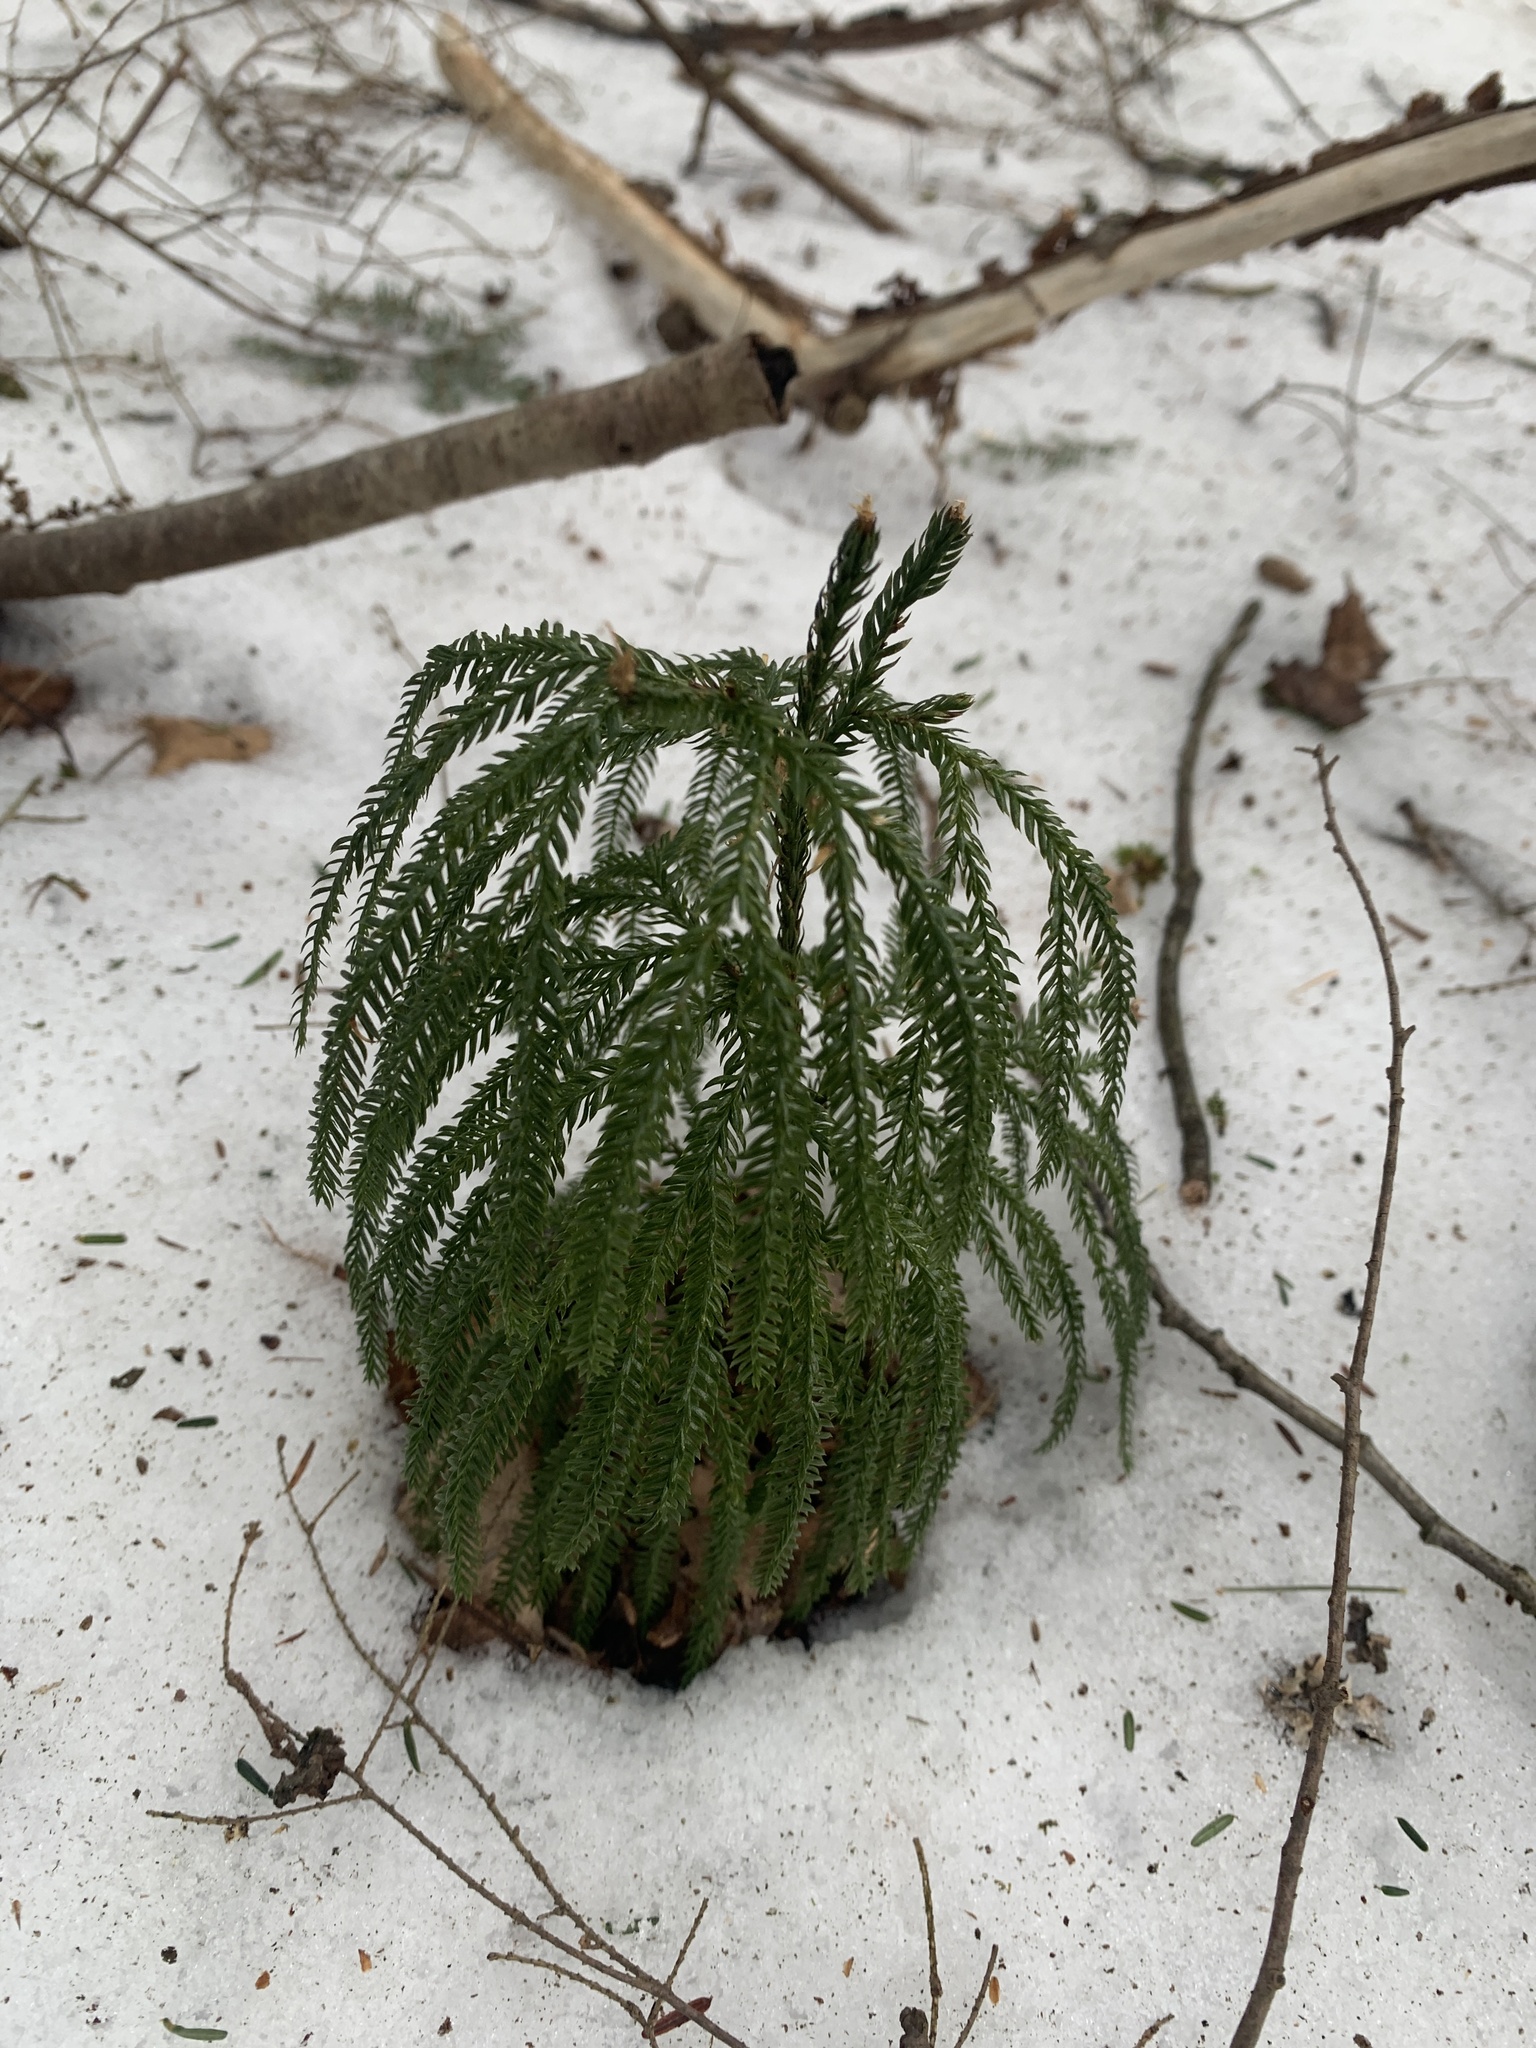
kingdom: Plantae
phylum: Tracheophyta
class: Lycopodiopsida
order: Lycopodiales
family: Lycopodiaceae
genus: Dendrolycopodium
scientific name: Dendrolycopodium obscurum
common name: Common ground-pine
